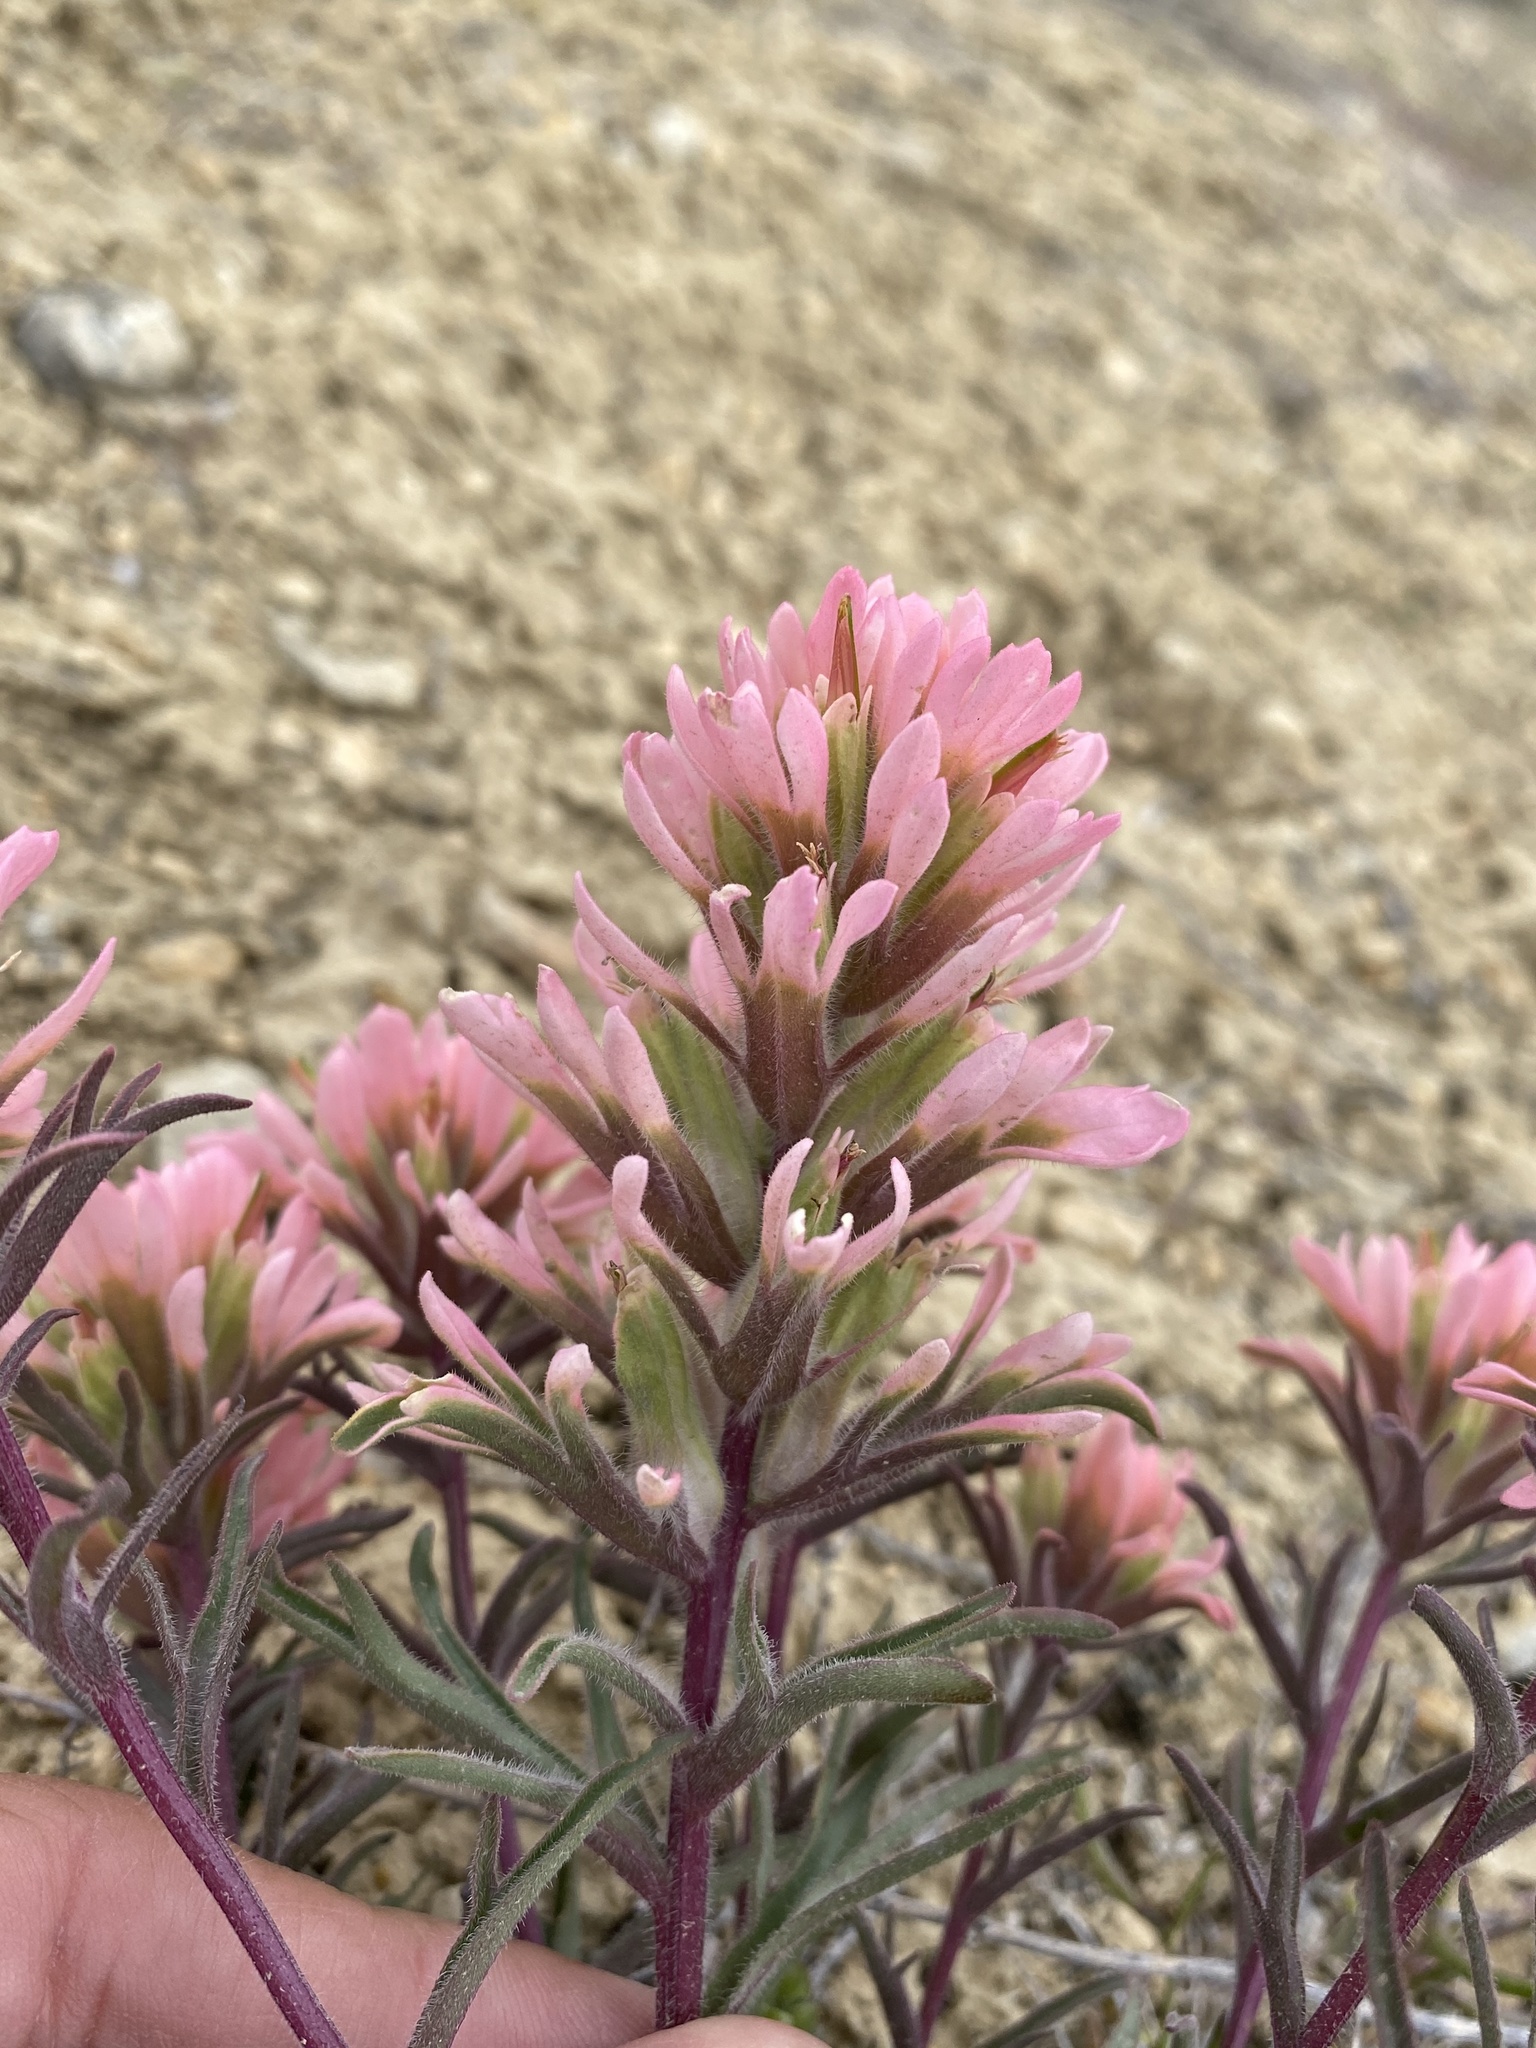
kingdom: Plantae
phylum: Tracheophyta
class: Magnoliopsida
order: Lamiales
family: Orobanchaceae
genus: Castilleja
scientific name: Castilleja angustifolia
